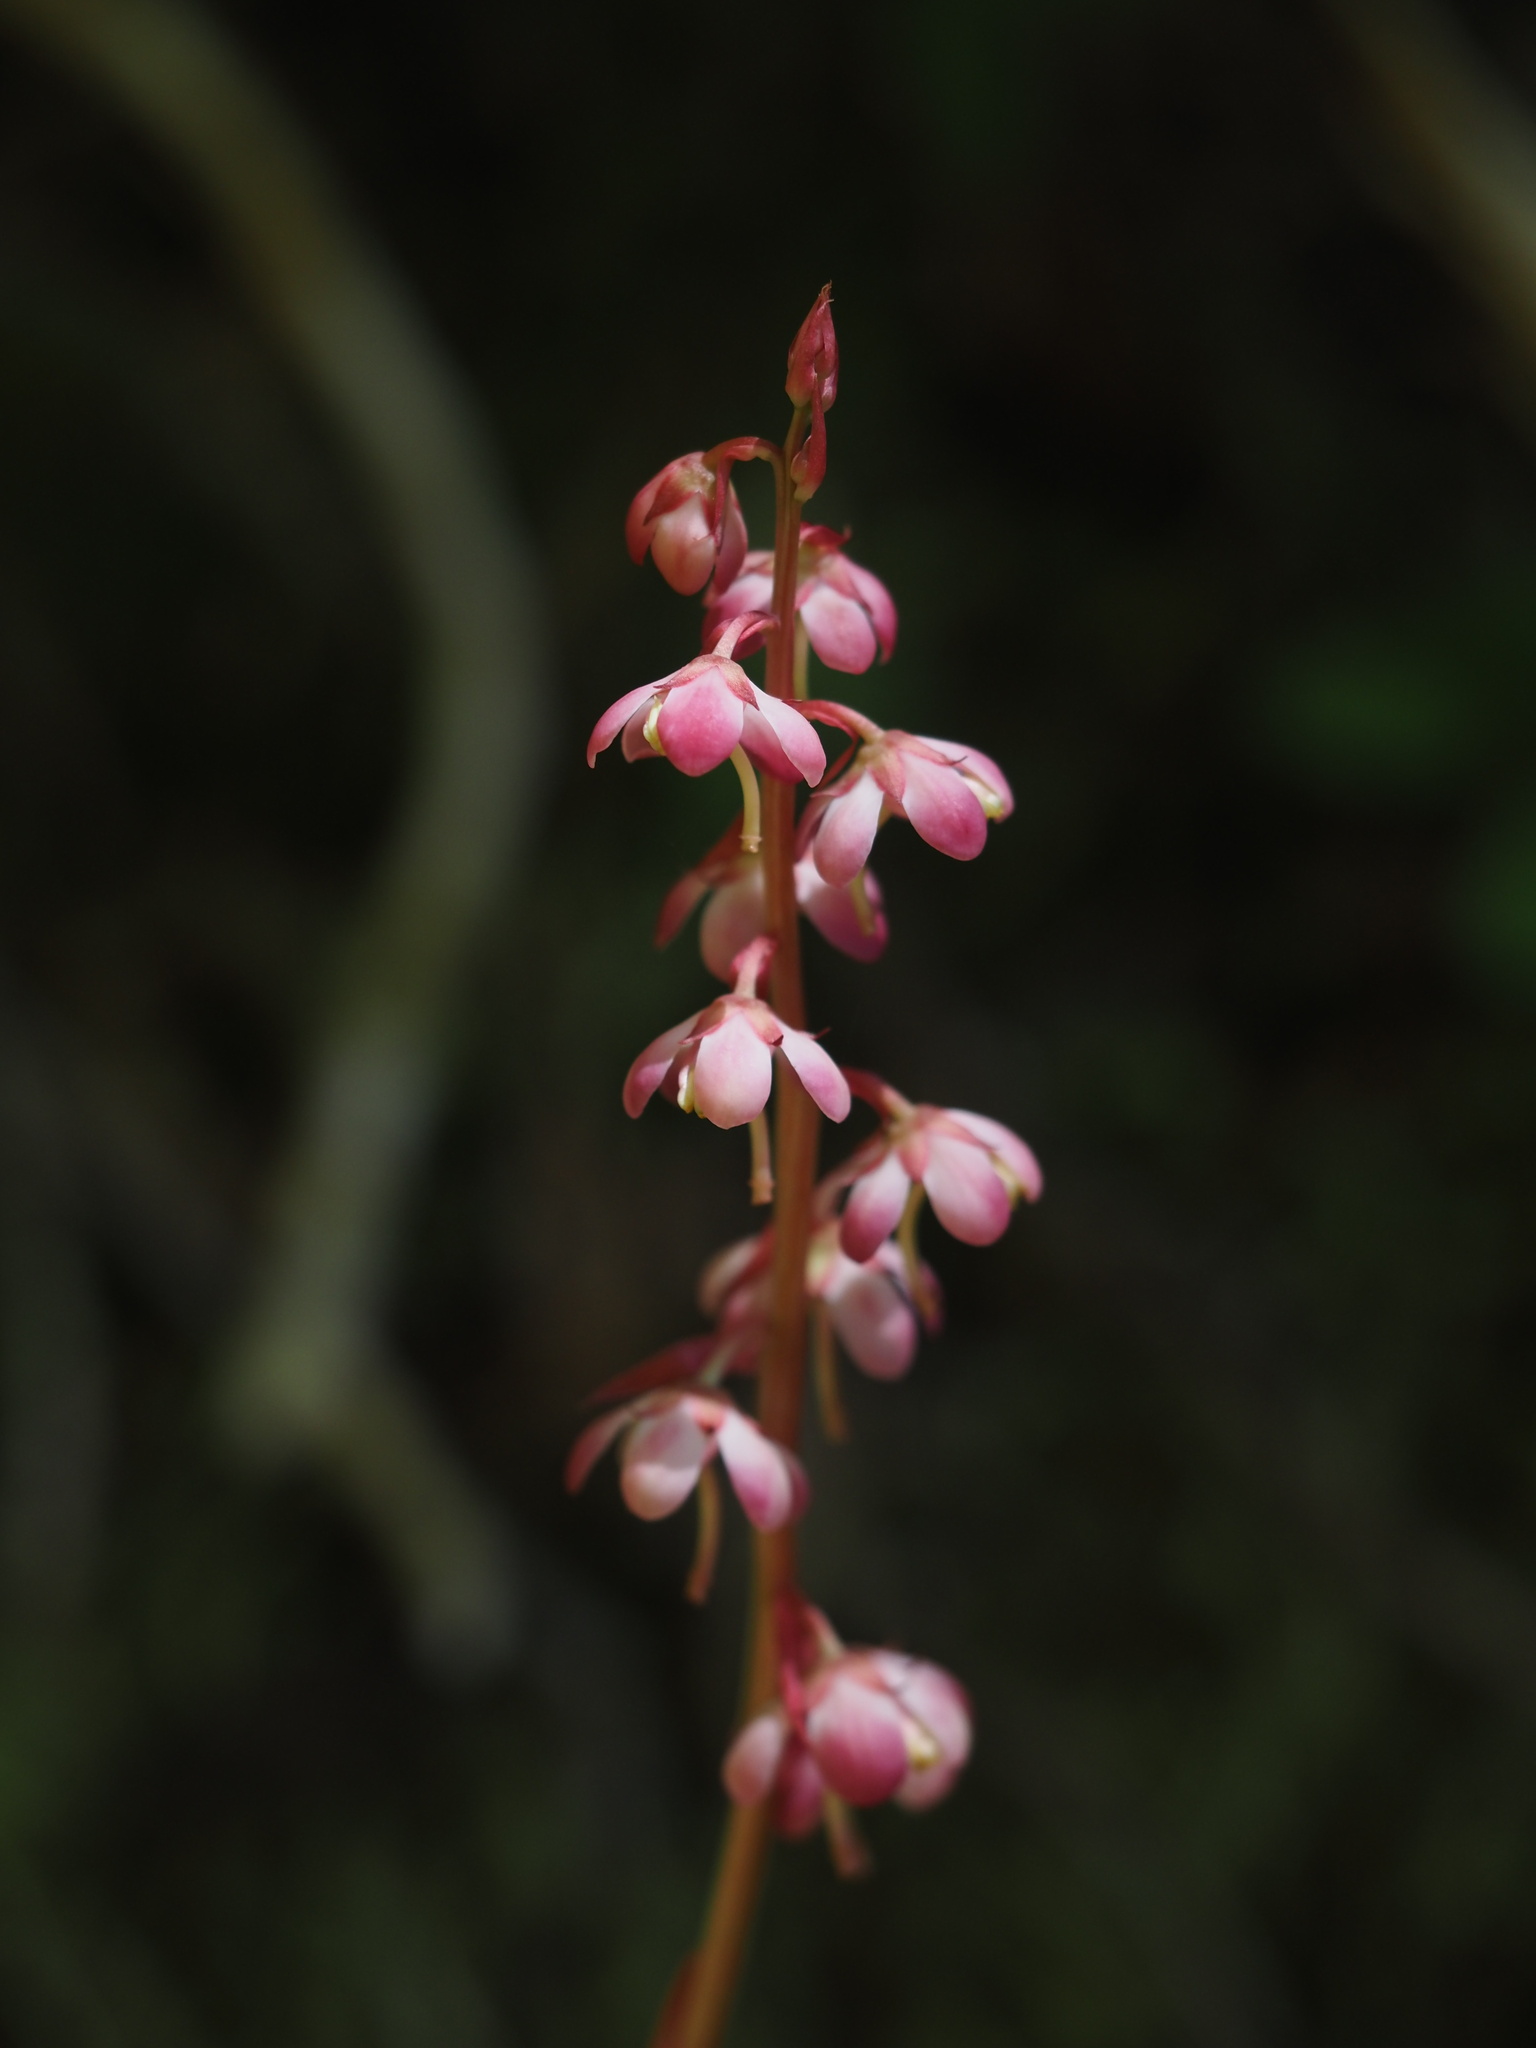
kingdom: Plantae
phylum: Tracheophyta
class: Magnoliopsida
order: Ericales
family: Ericaceae
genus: Pyrola
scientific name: Pyrola asarifolia
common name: Bog wintergreen
